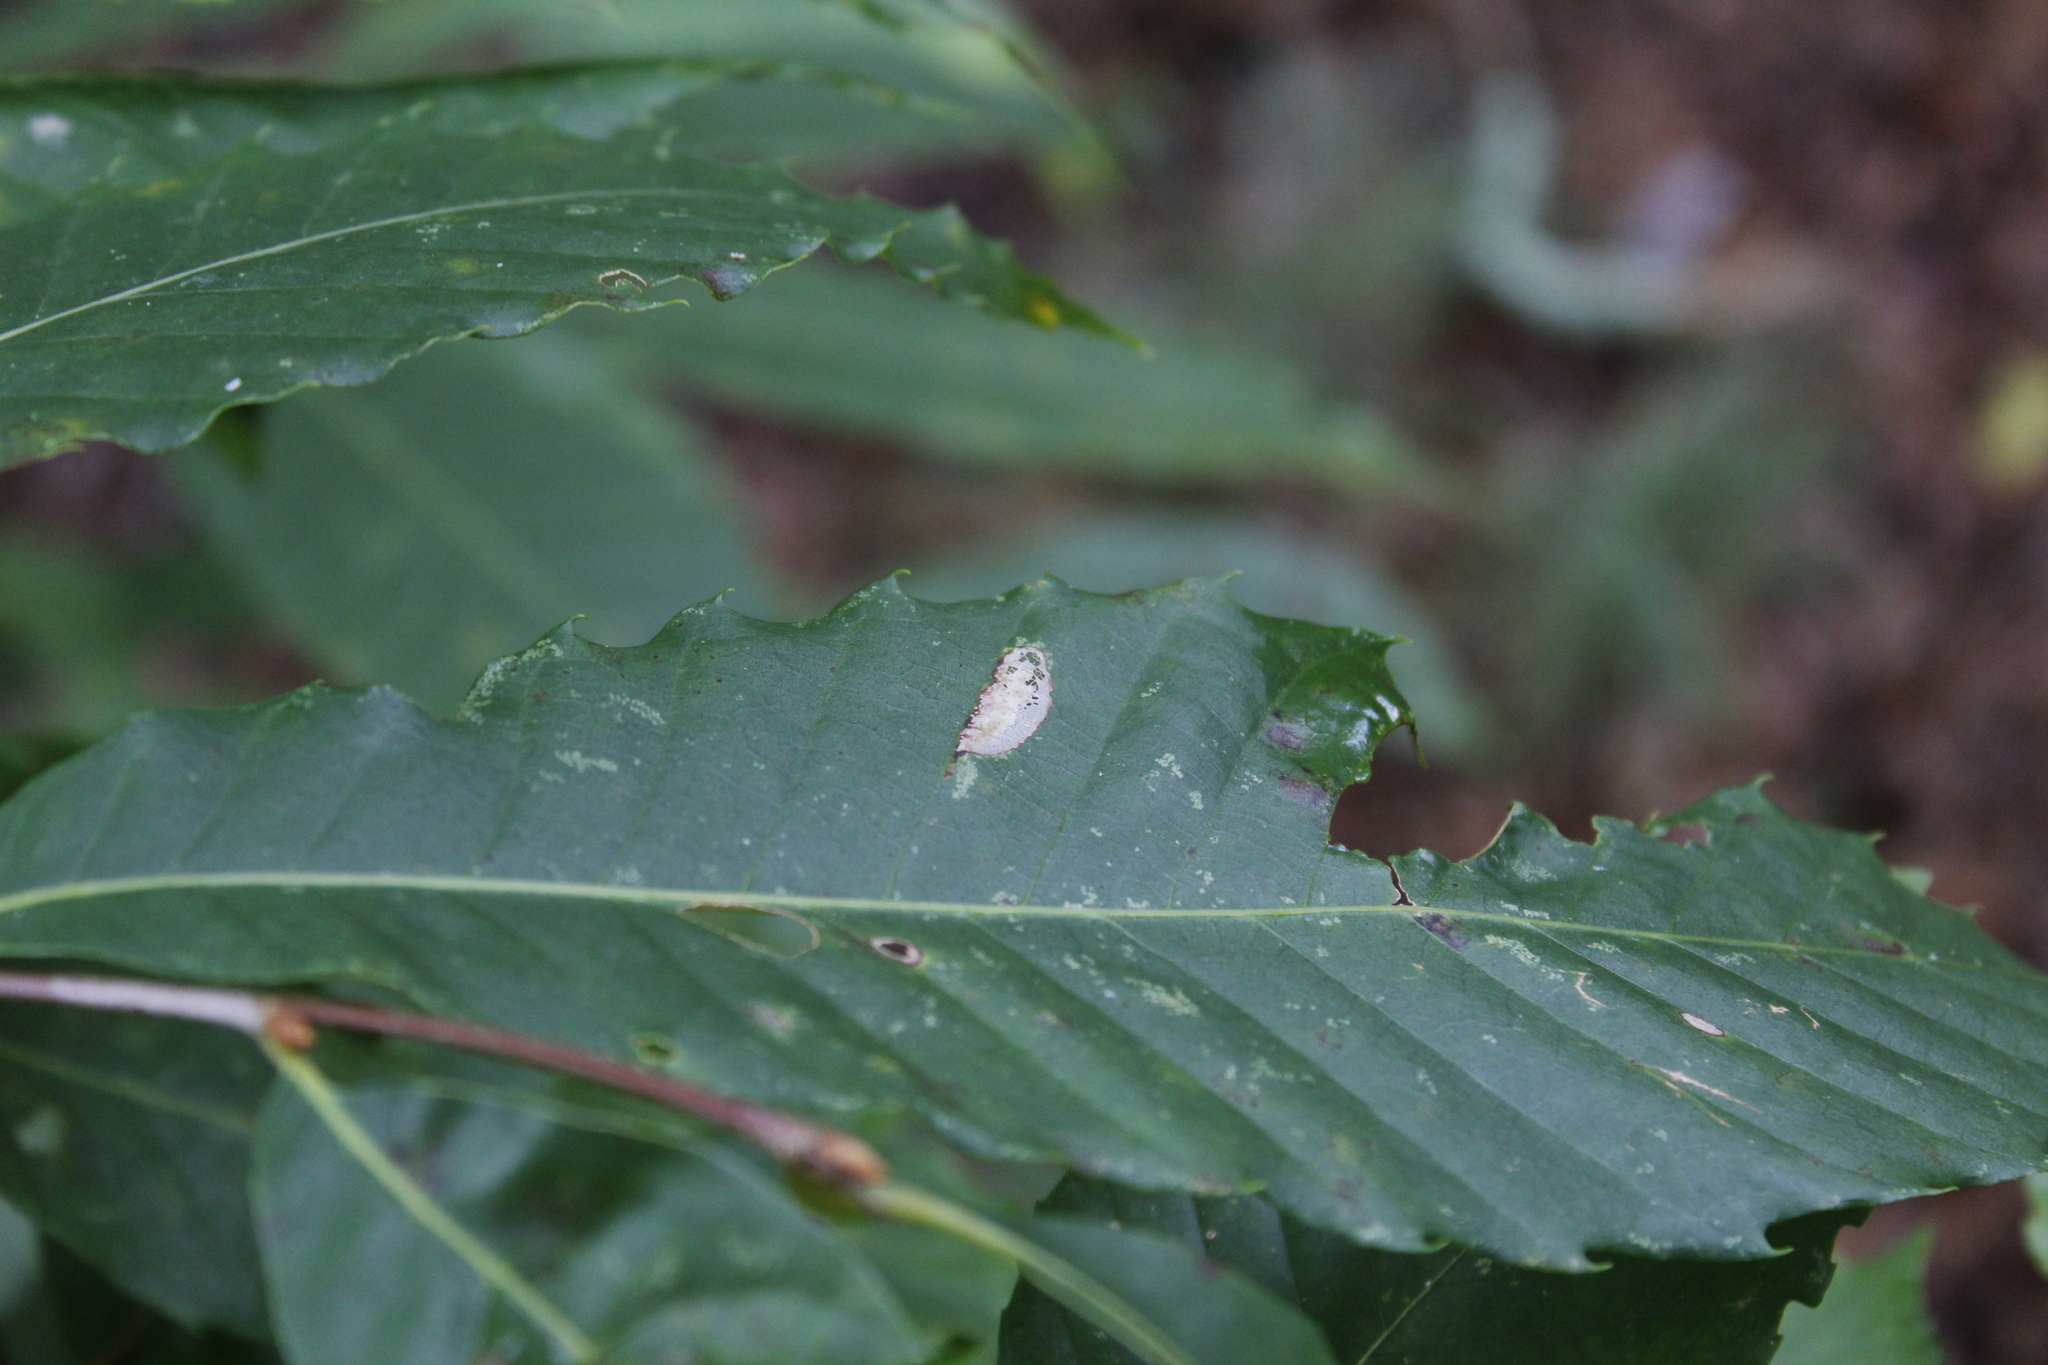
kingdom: Animalia
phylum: Arthropoda
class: Insecta
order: Lepidoptera
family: Gracillariidae
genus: Phyllonorycter
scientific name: Phyllonorycter kearfottella
